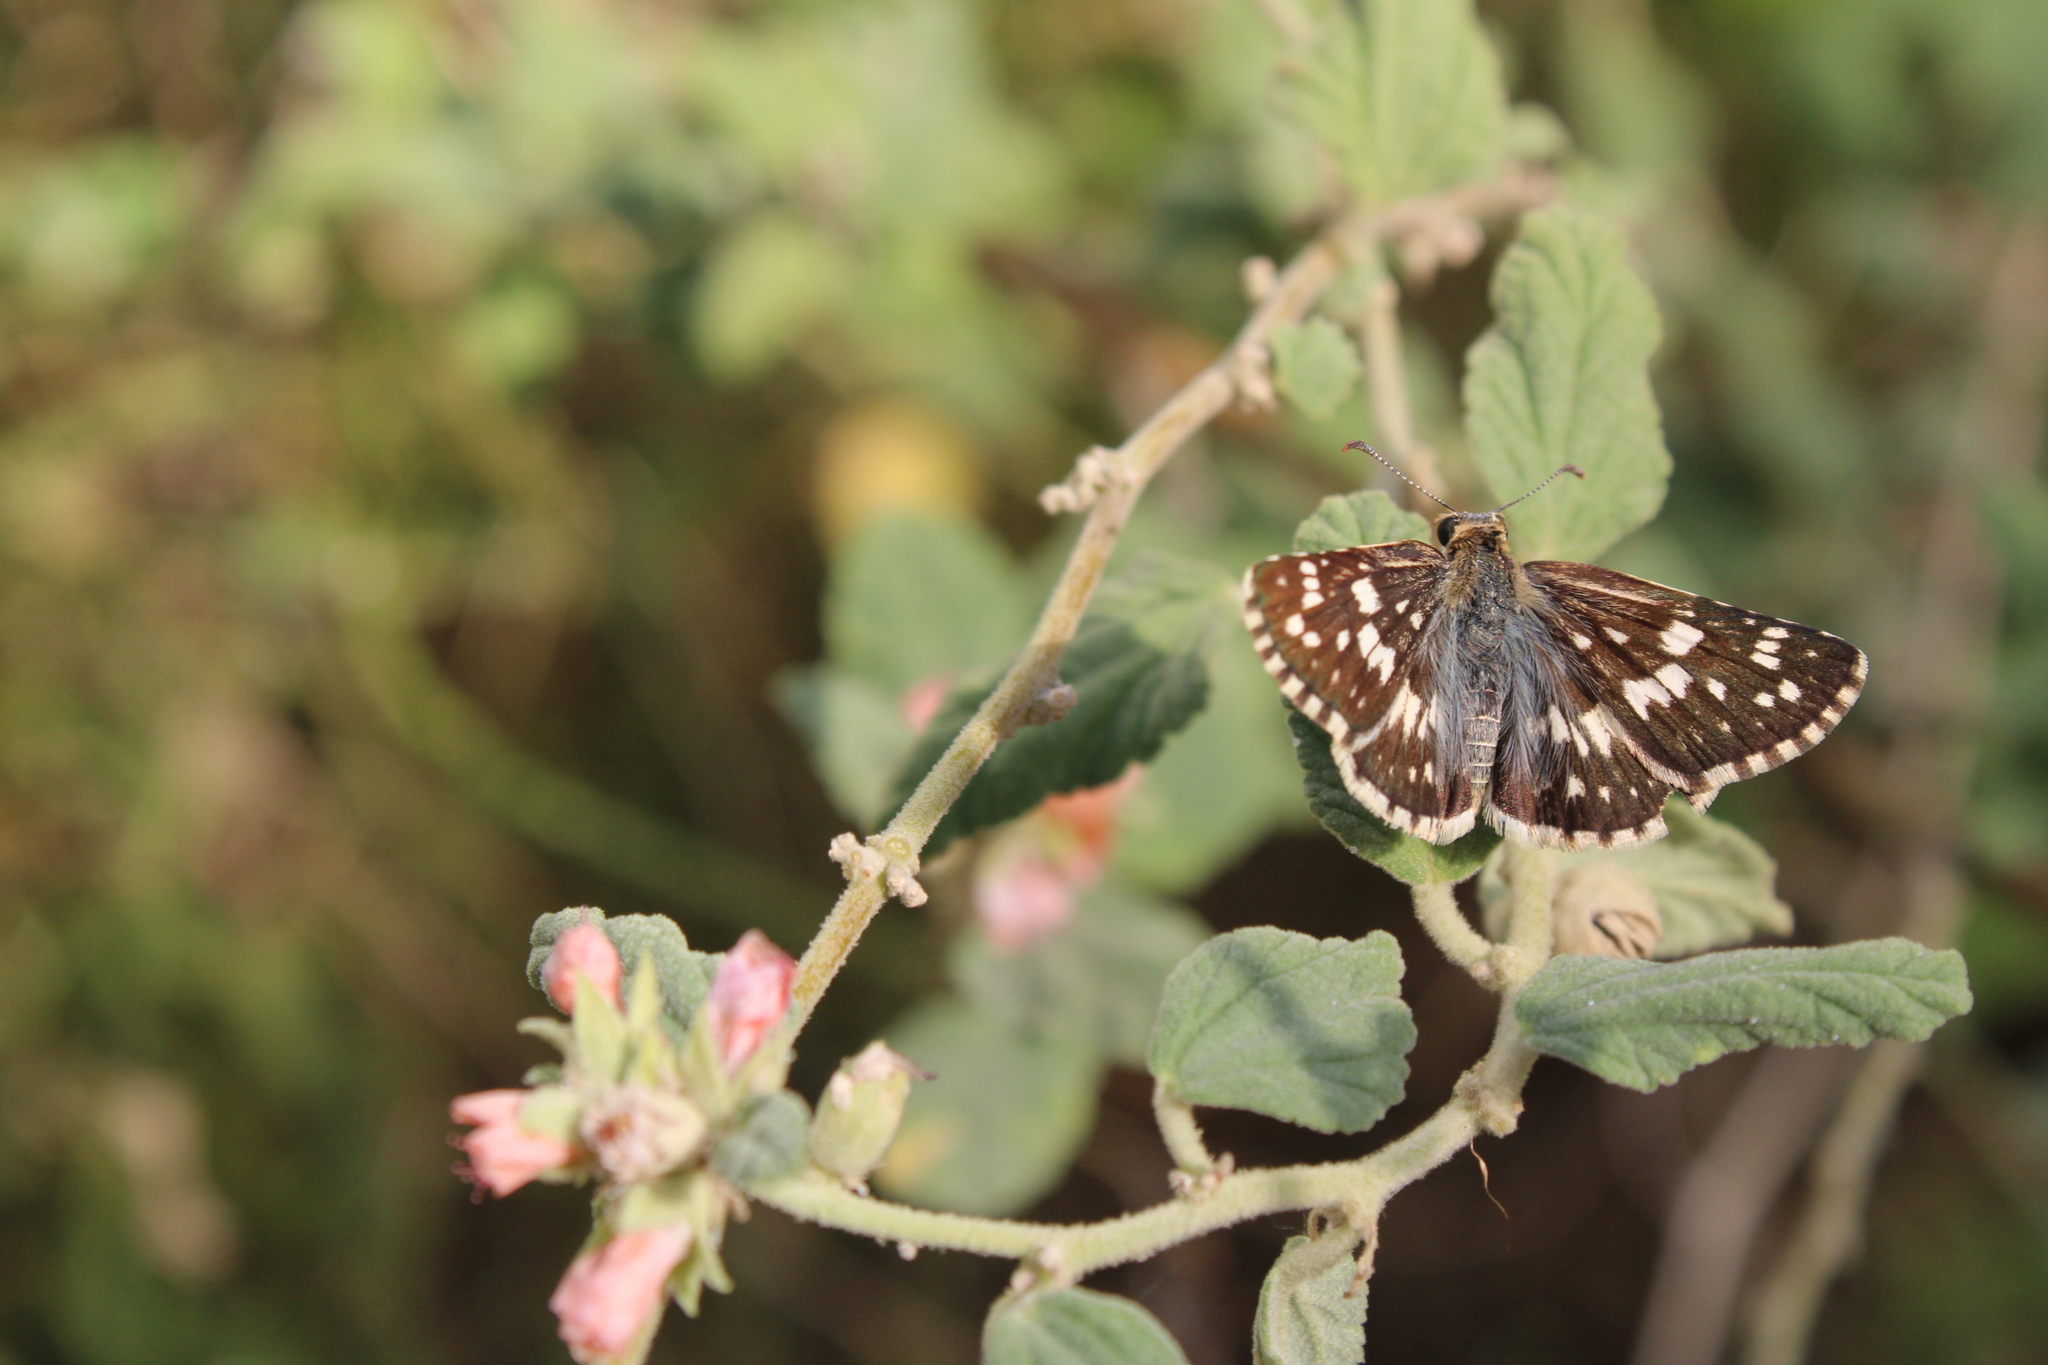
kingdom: Animalia
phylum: Arthropoda
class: Insecta
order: Lepidoptera
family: Hesperiidae
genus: Burnsius
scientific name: Burnsius orcynoides
